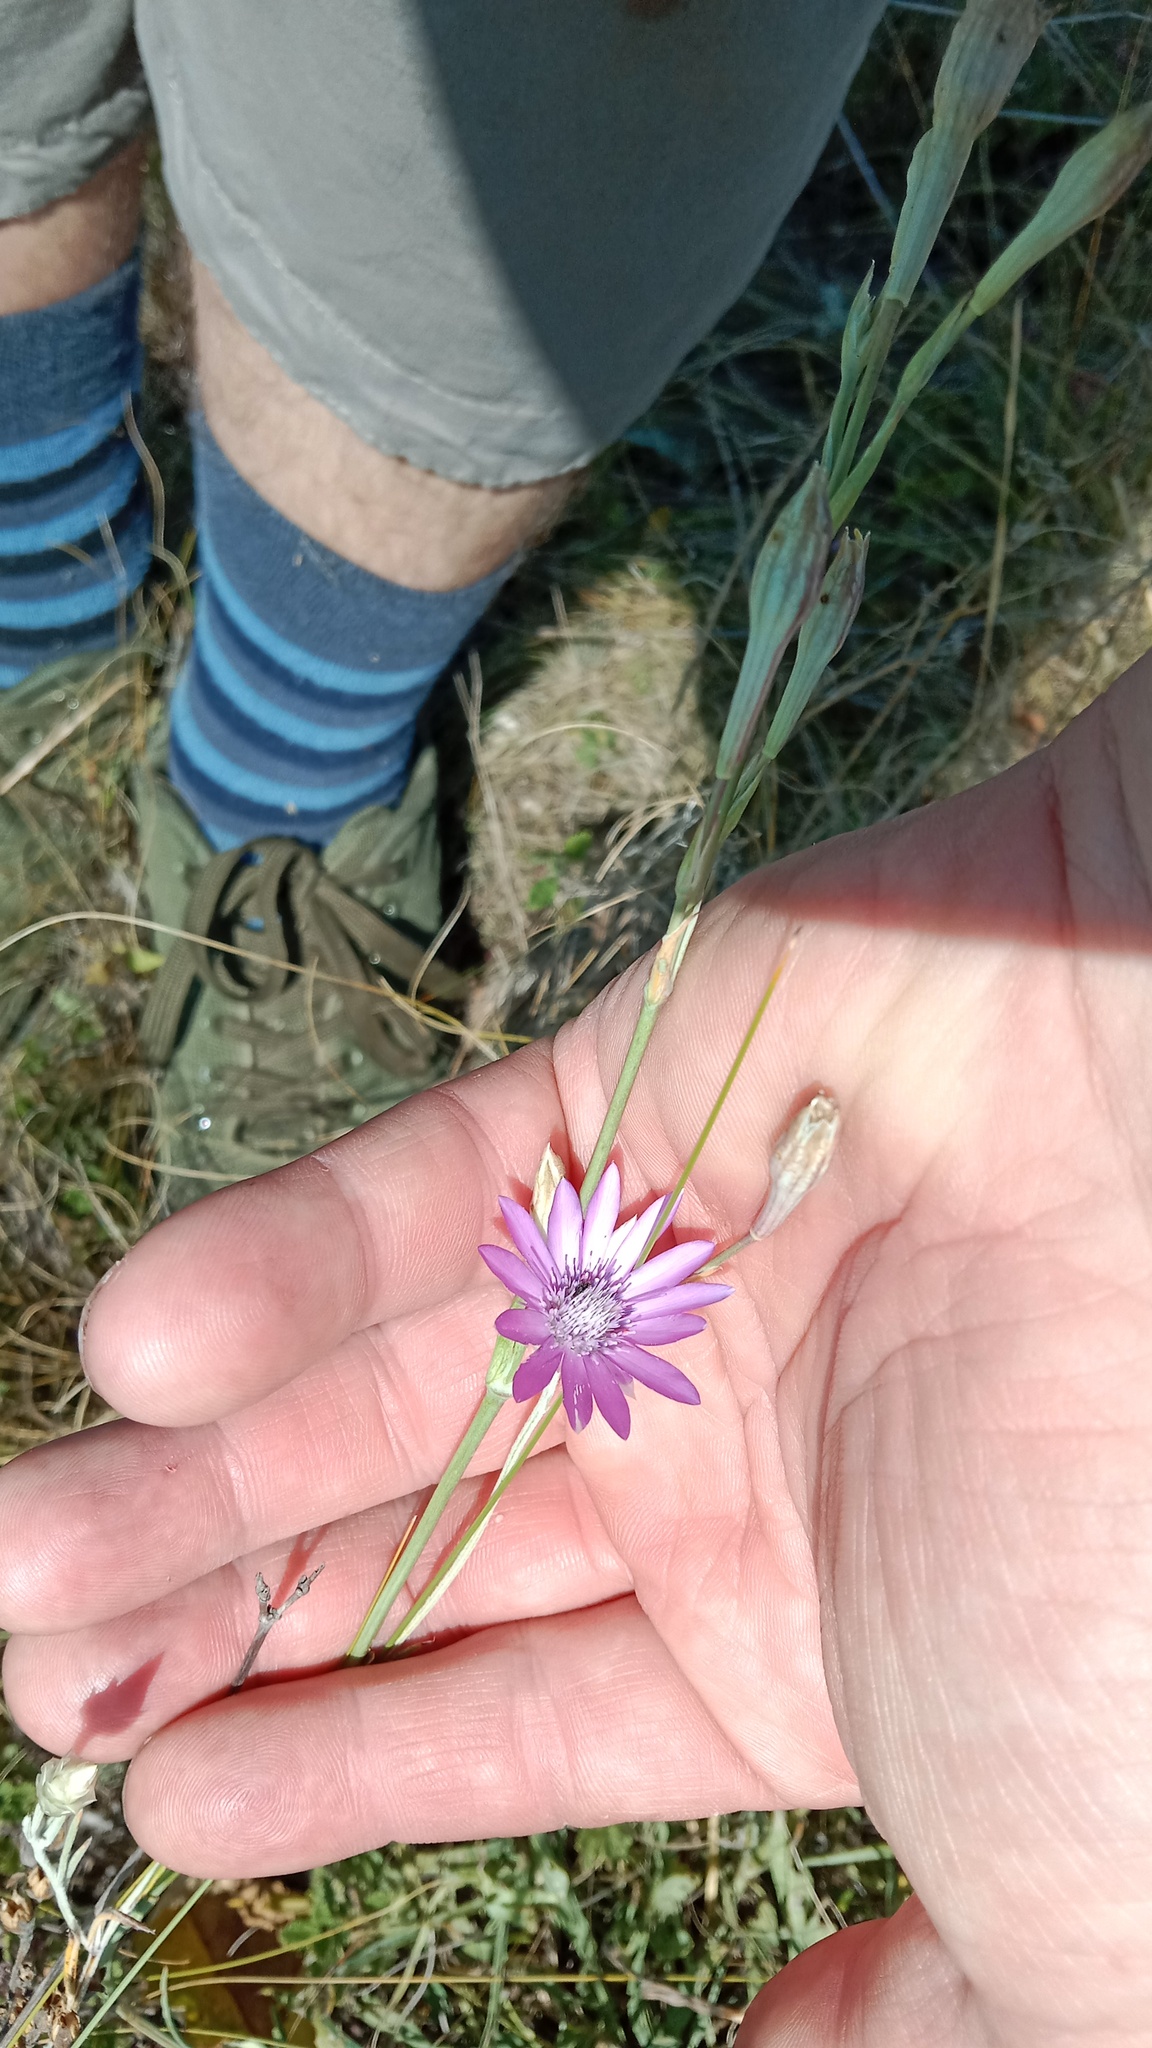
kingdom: Plantae
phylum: Tracheophyta
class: Magnoliopsida
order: Asterales
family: Asteraceae
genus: Xeranthemum
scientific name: Xeranthemum annuum
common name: Immortelle
